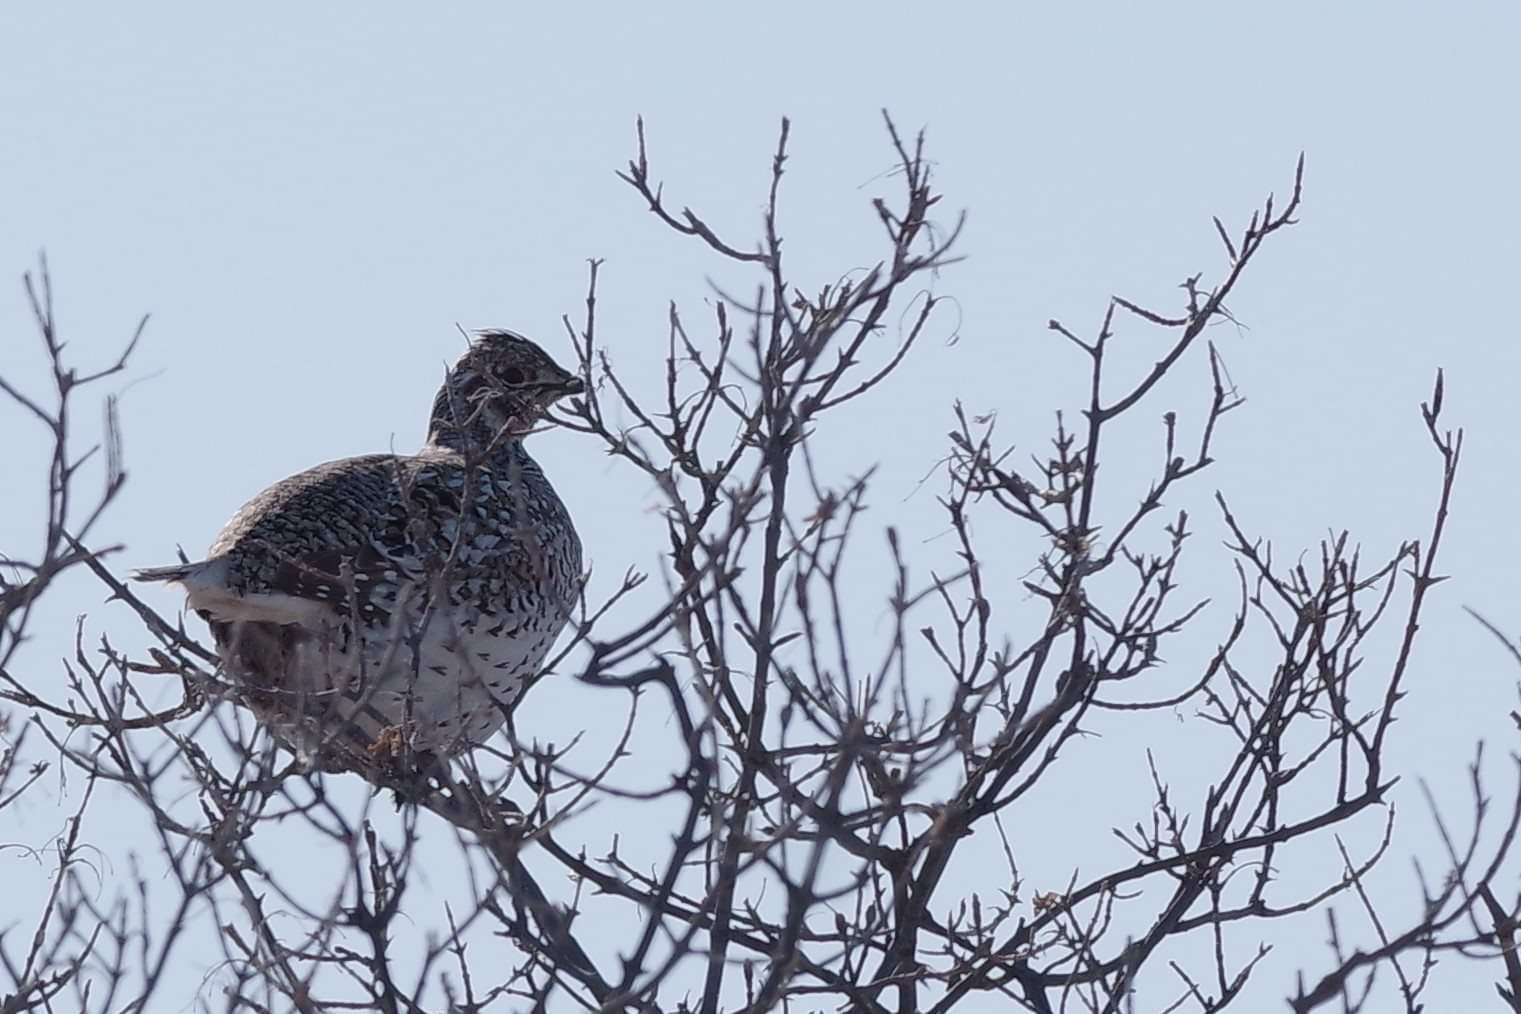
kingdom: Animalia
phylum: Chordata
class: Aves
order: Galliformes
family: Phasianidae
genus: Tympanuchus
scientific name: Tympanuchus phasianellus
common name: Sharp-tailed grouse
